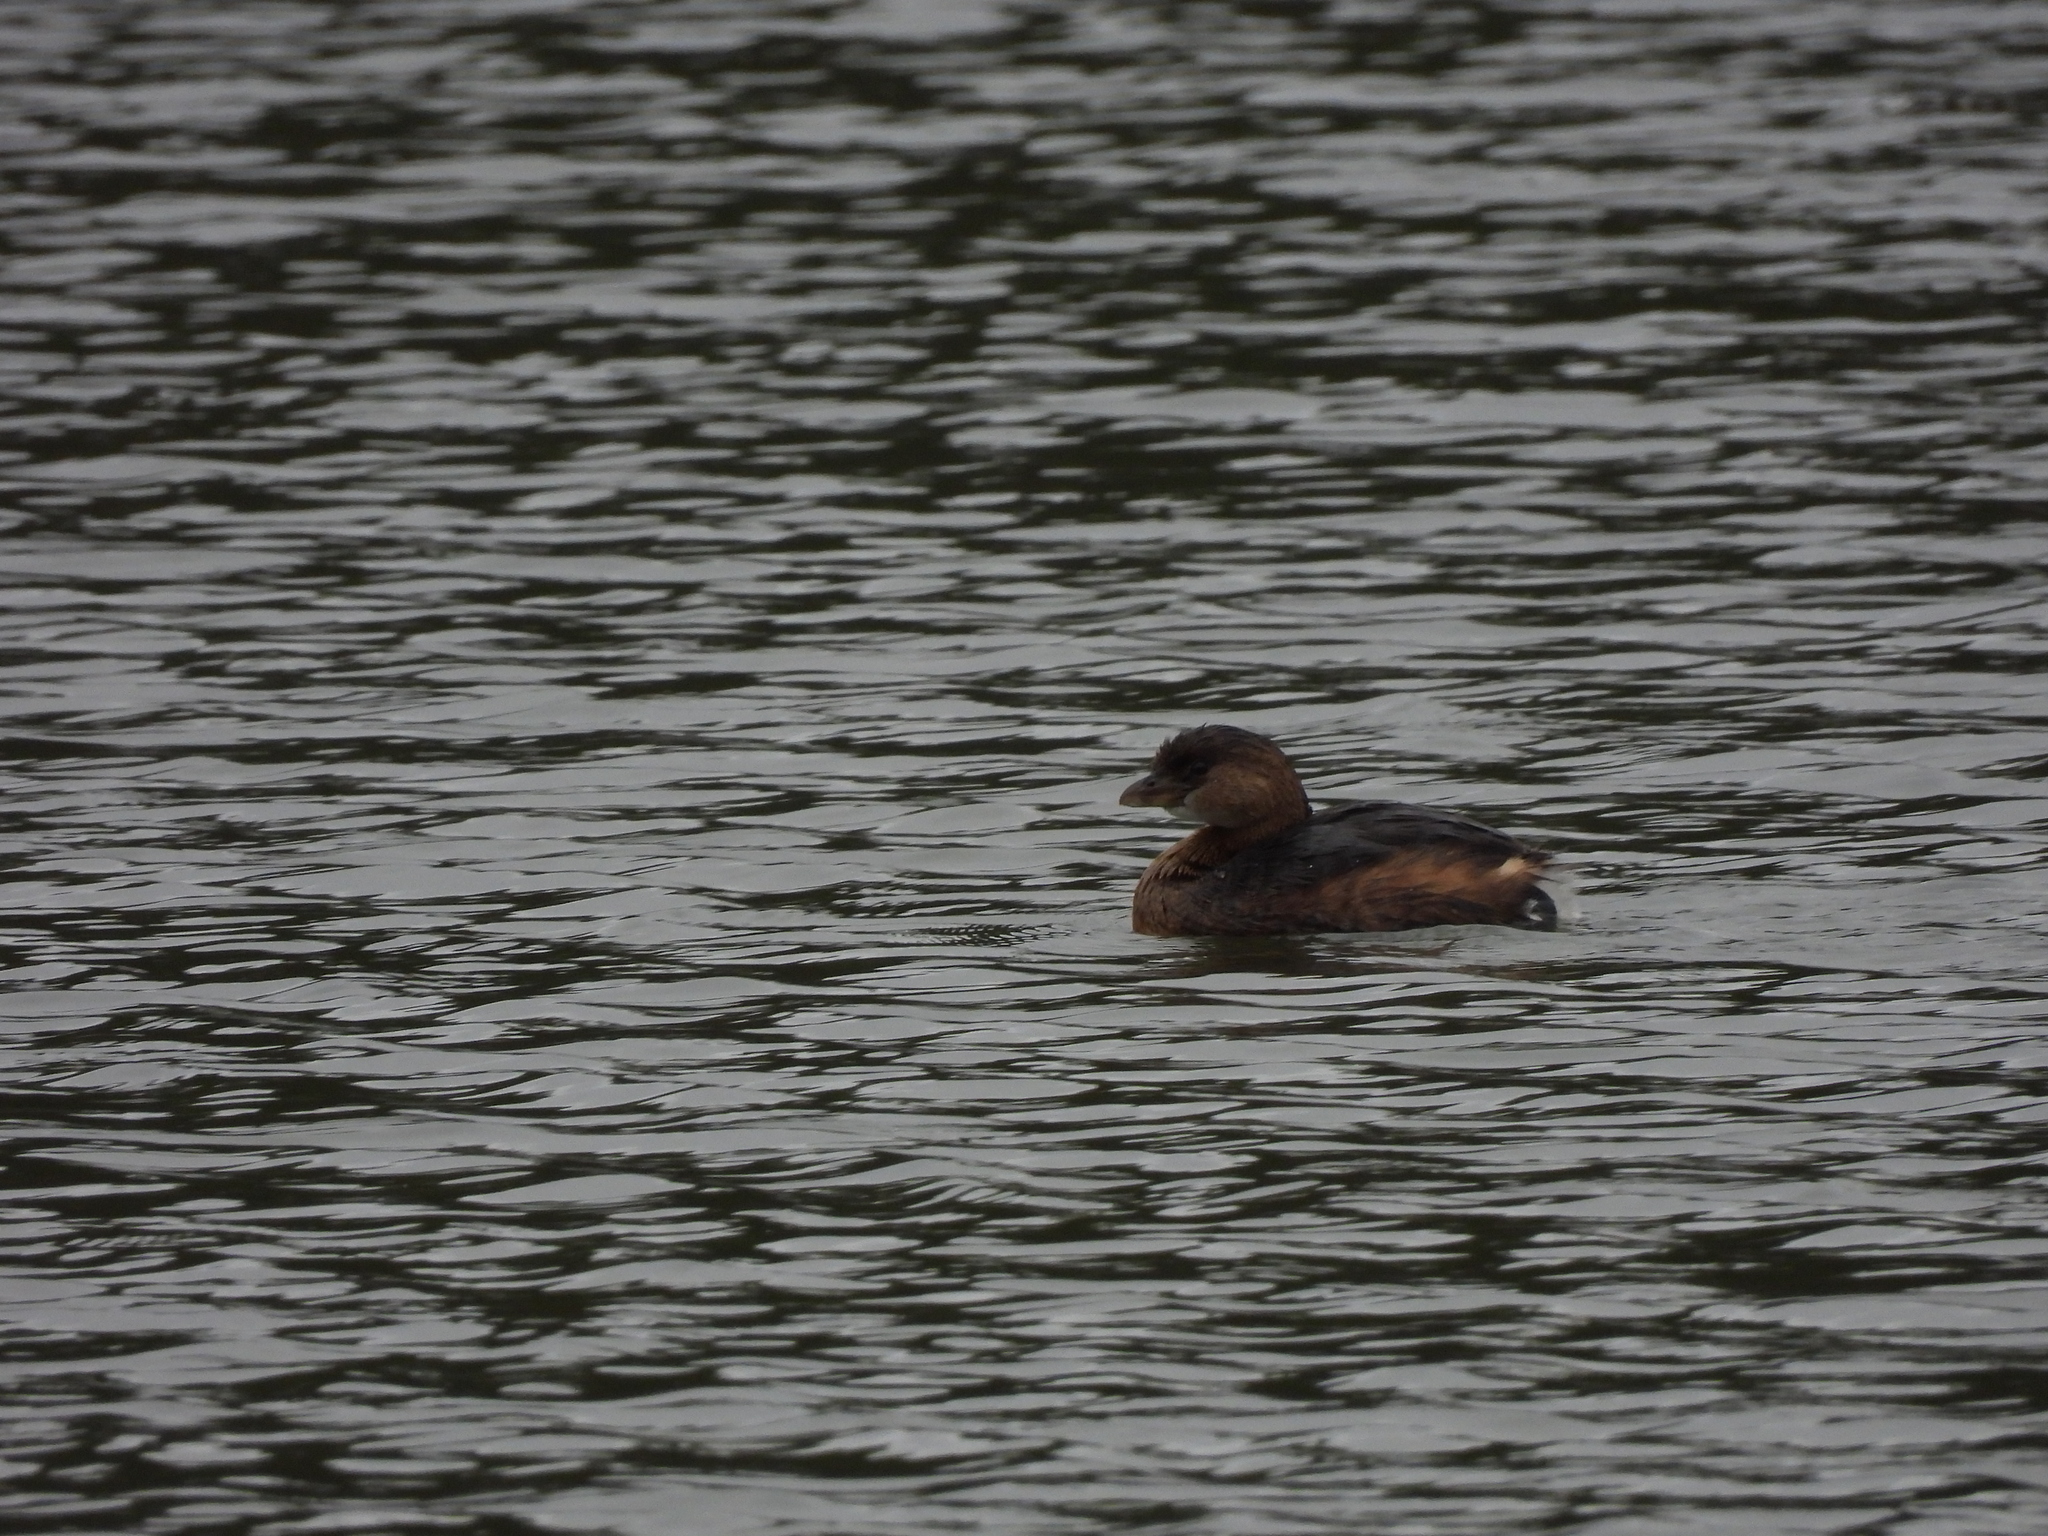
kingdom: Animalia
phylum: Chordata
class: Aves
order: Podicipediformes
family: Podicipedidae
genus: Podilymbus
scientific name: Podilymbus podiceps
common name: Pied-billed grebe
